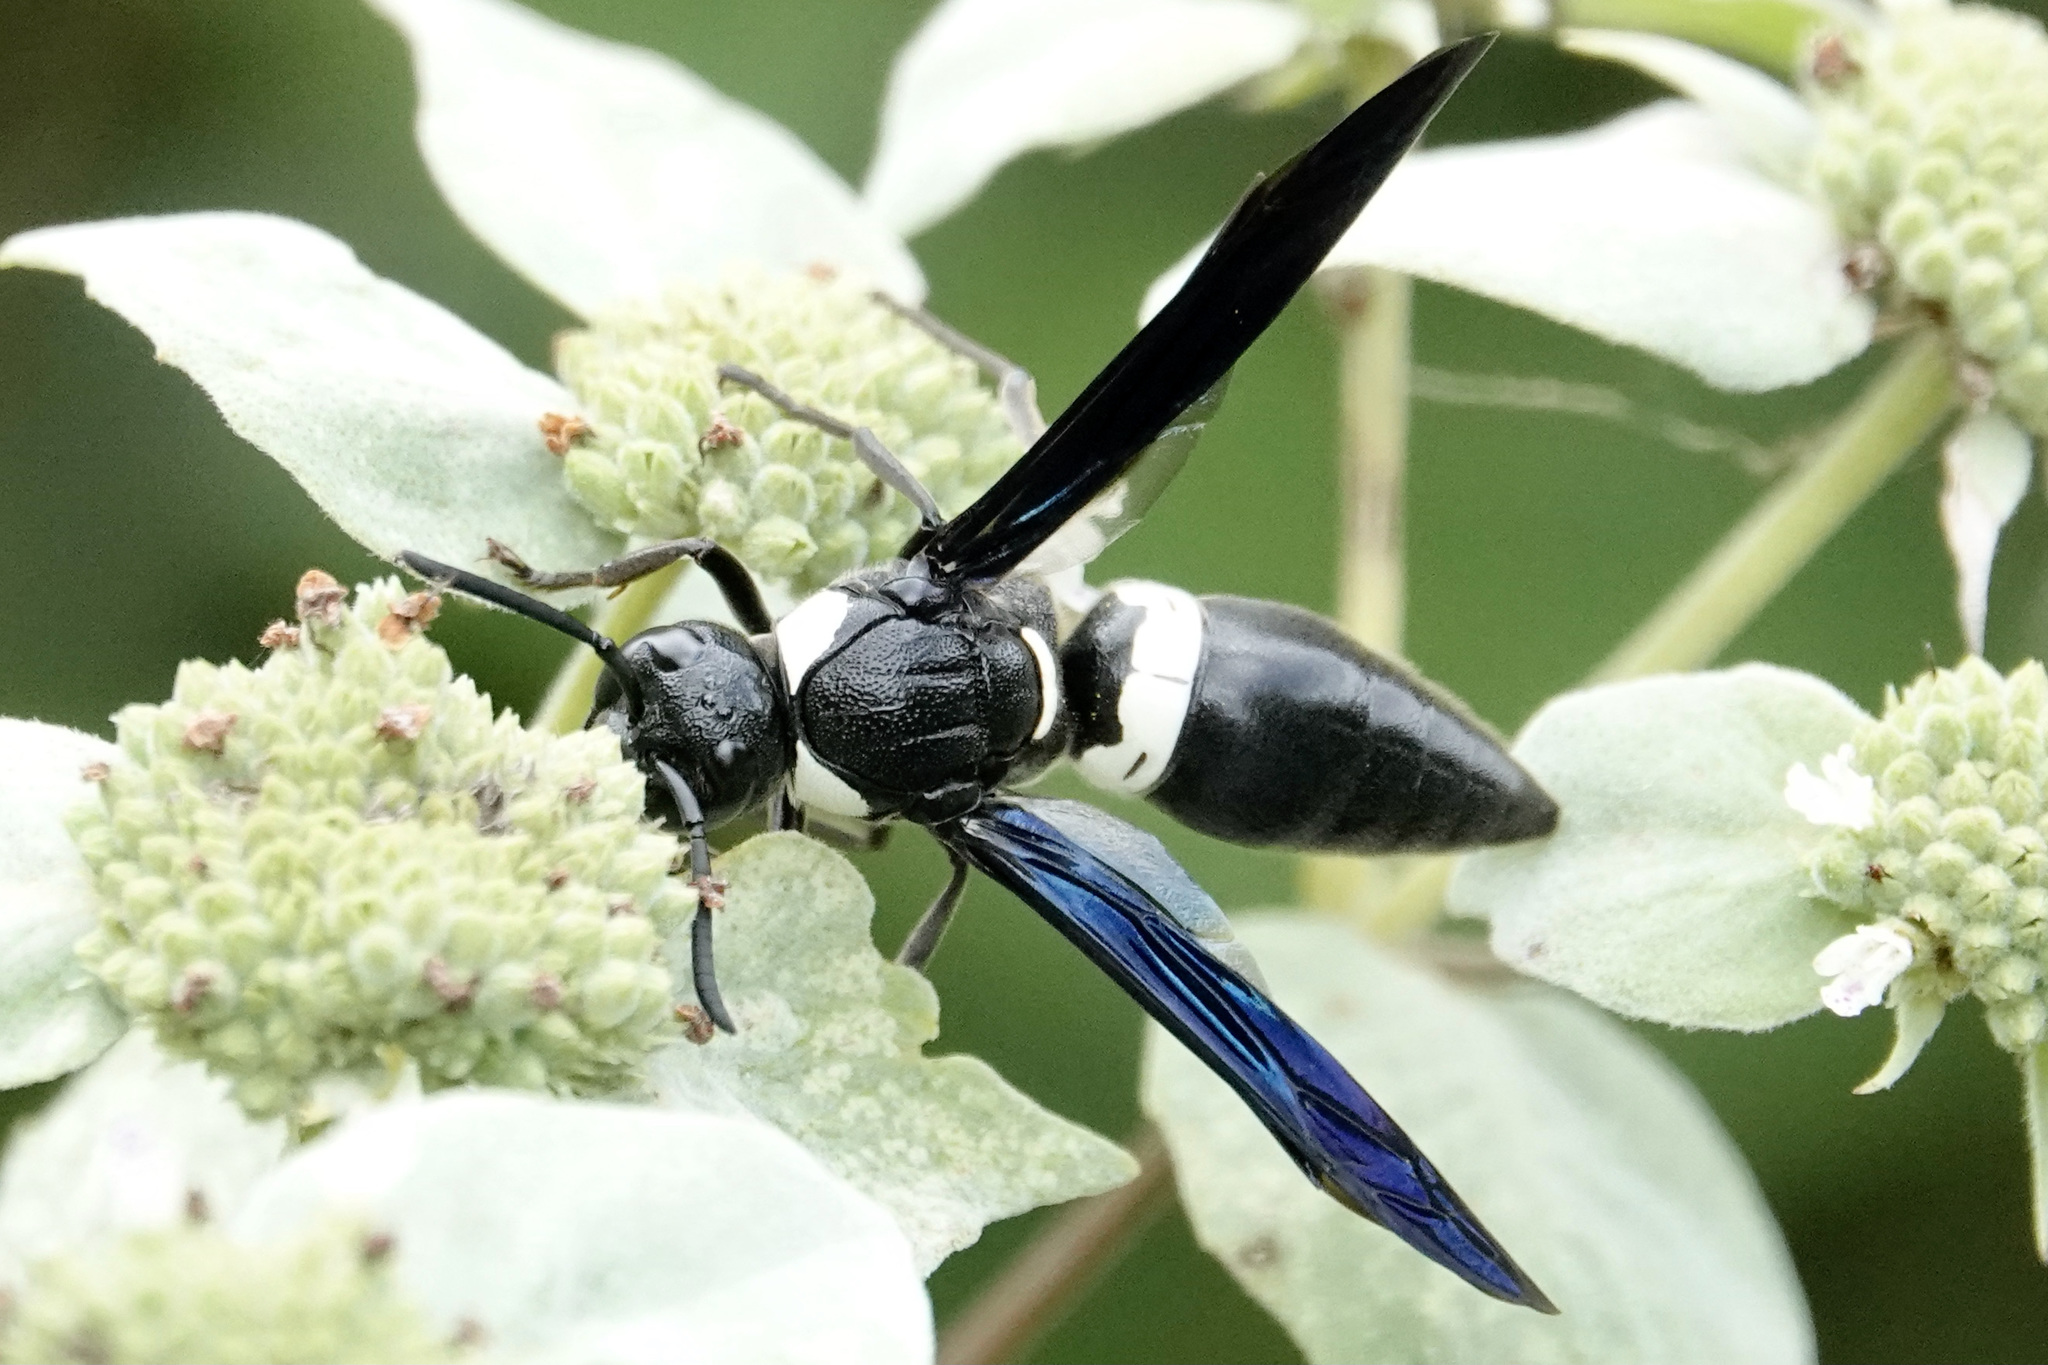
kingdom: Animalia
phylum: Arthropoda
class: Insecta
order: Hymenoptera
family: Eumenidae
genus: Monobia
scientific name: Monobia quadridens
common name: Four-toothed mason wasp
